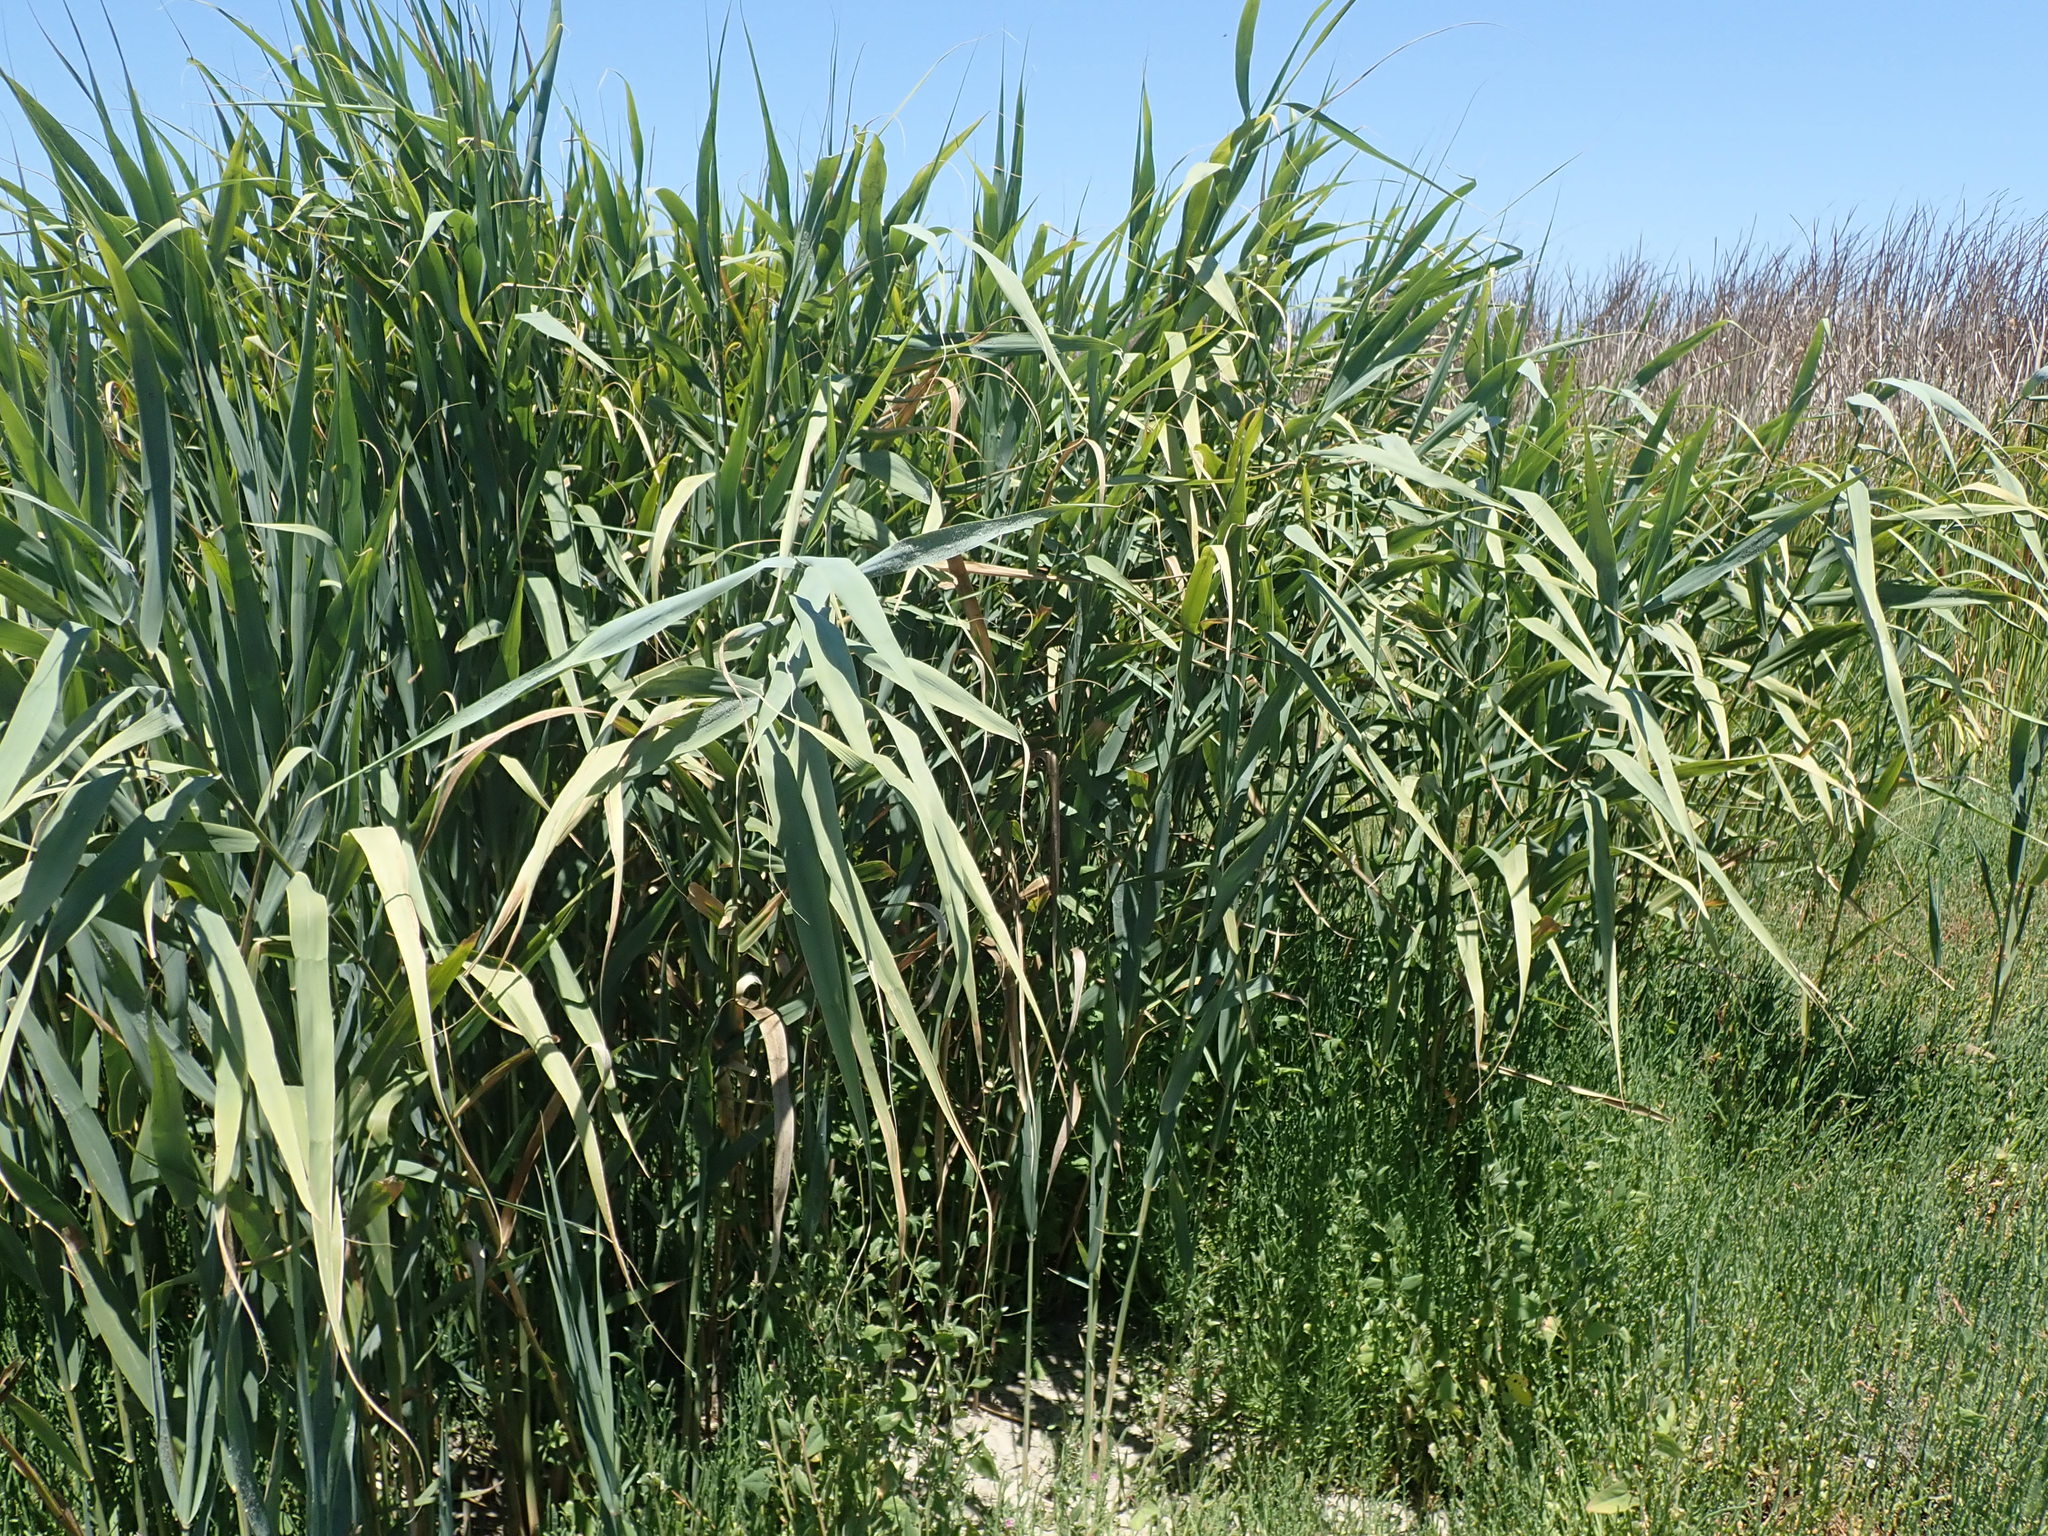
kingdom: Plantae
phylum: Tracheophyta
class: Liliopsida
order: Poales
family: Poaceae
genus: Phragmites
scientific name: Phragmites australis
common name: Common reed
